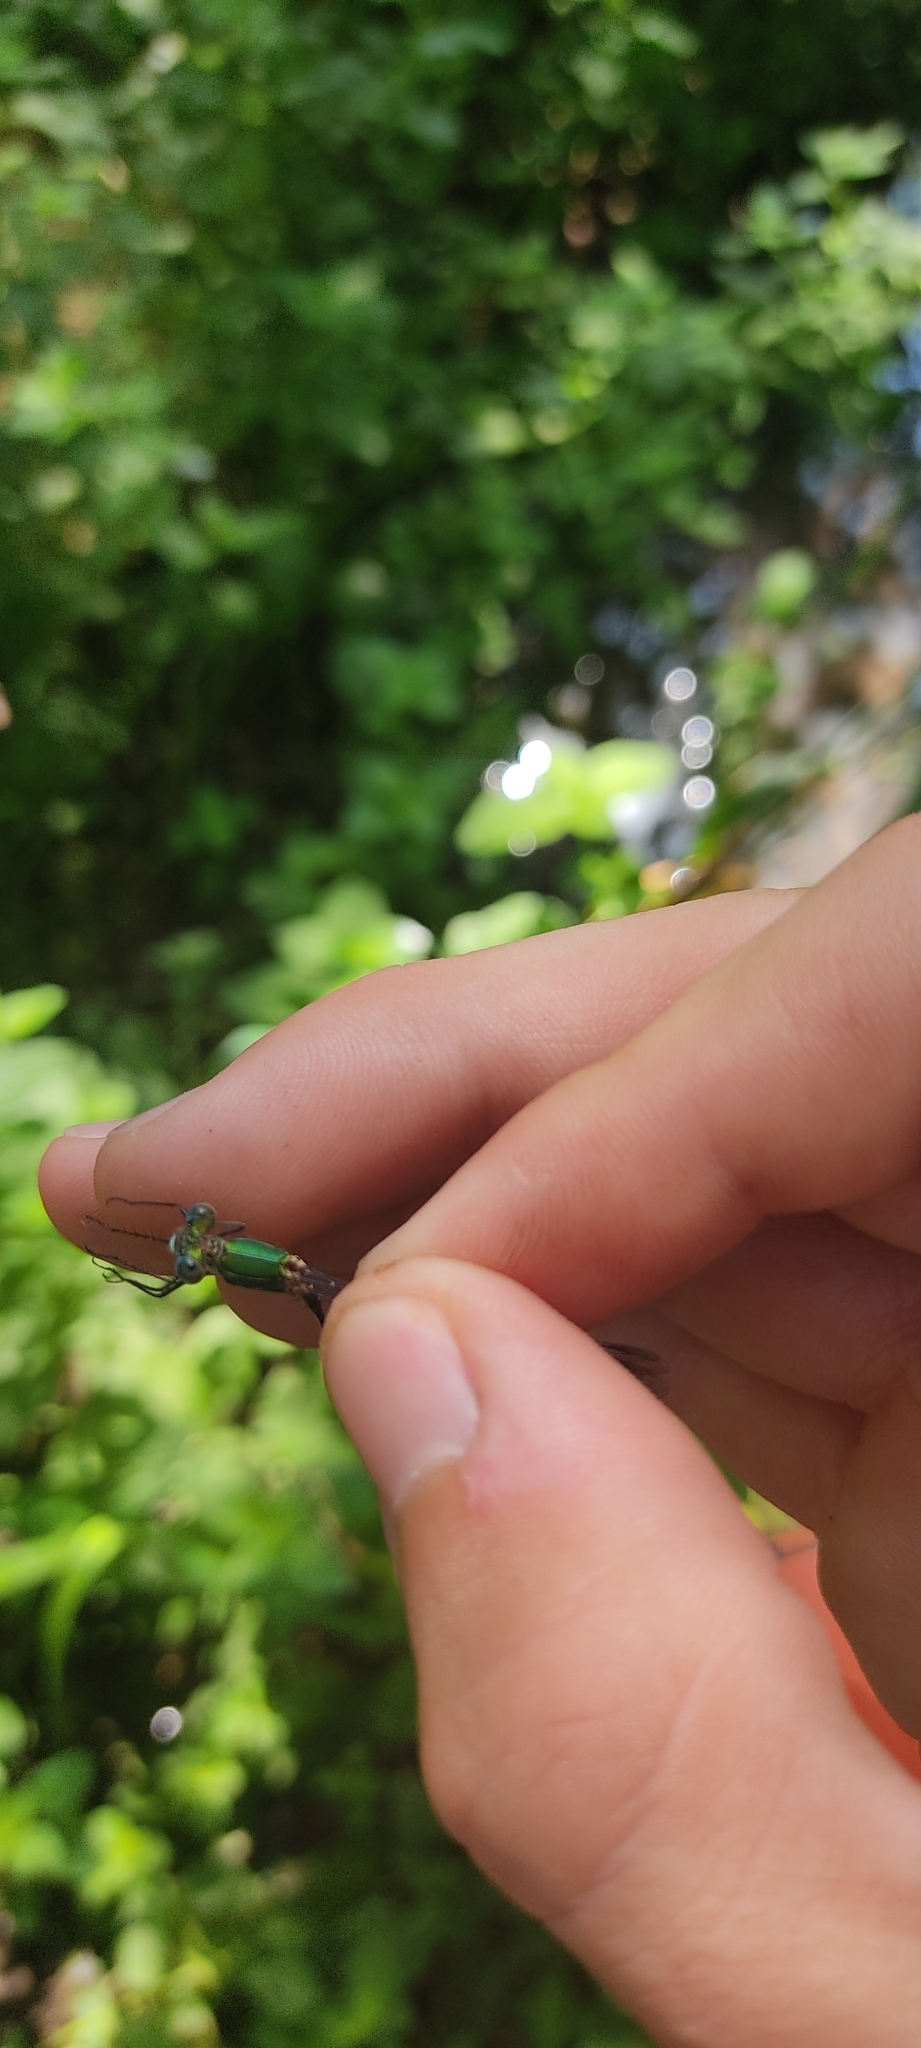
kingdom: Animalia
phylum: Arthropoda
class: Insecta
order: Odonata
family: Lestidae
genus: Chalcolestes
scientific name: Chalcolestes viridis
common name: Green emerald damselfly
